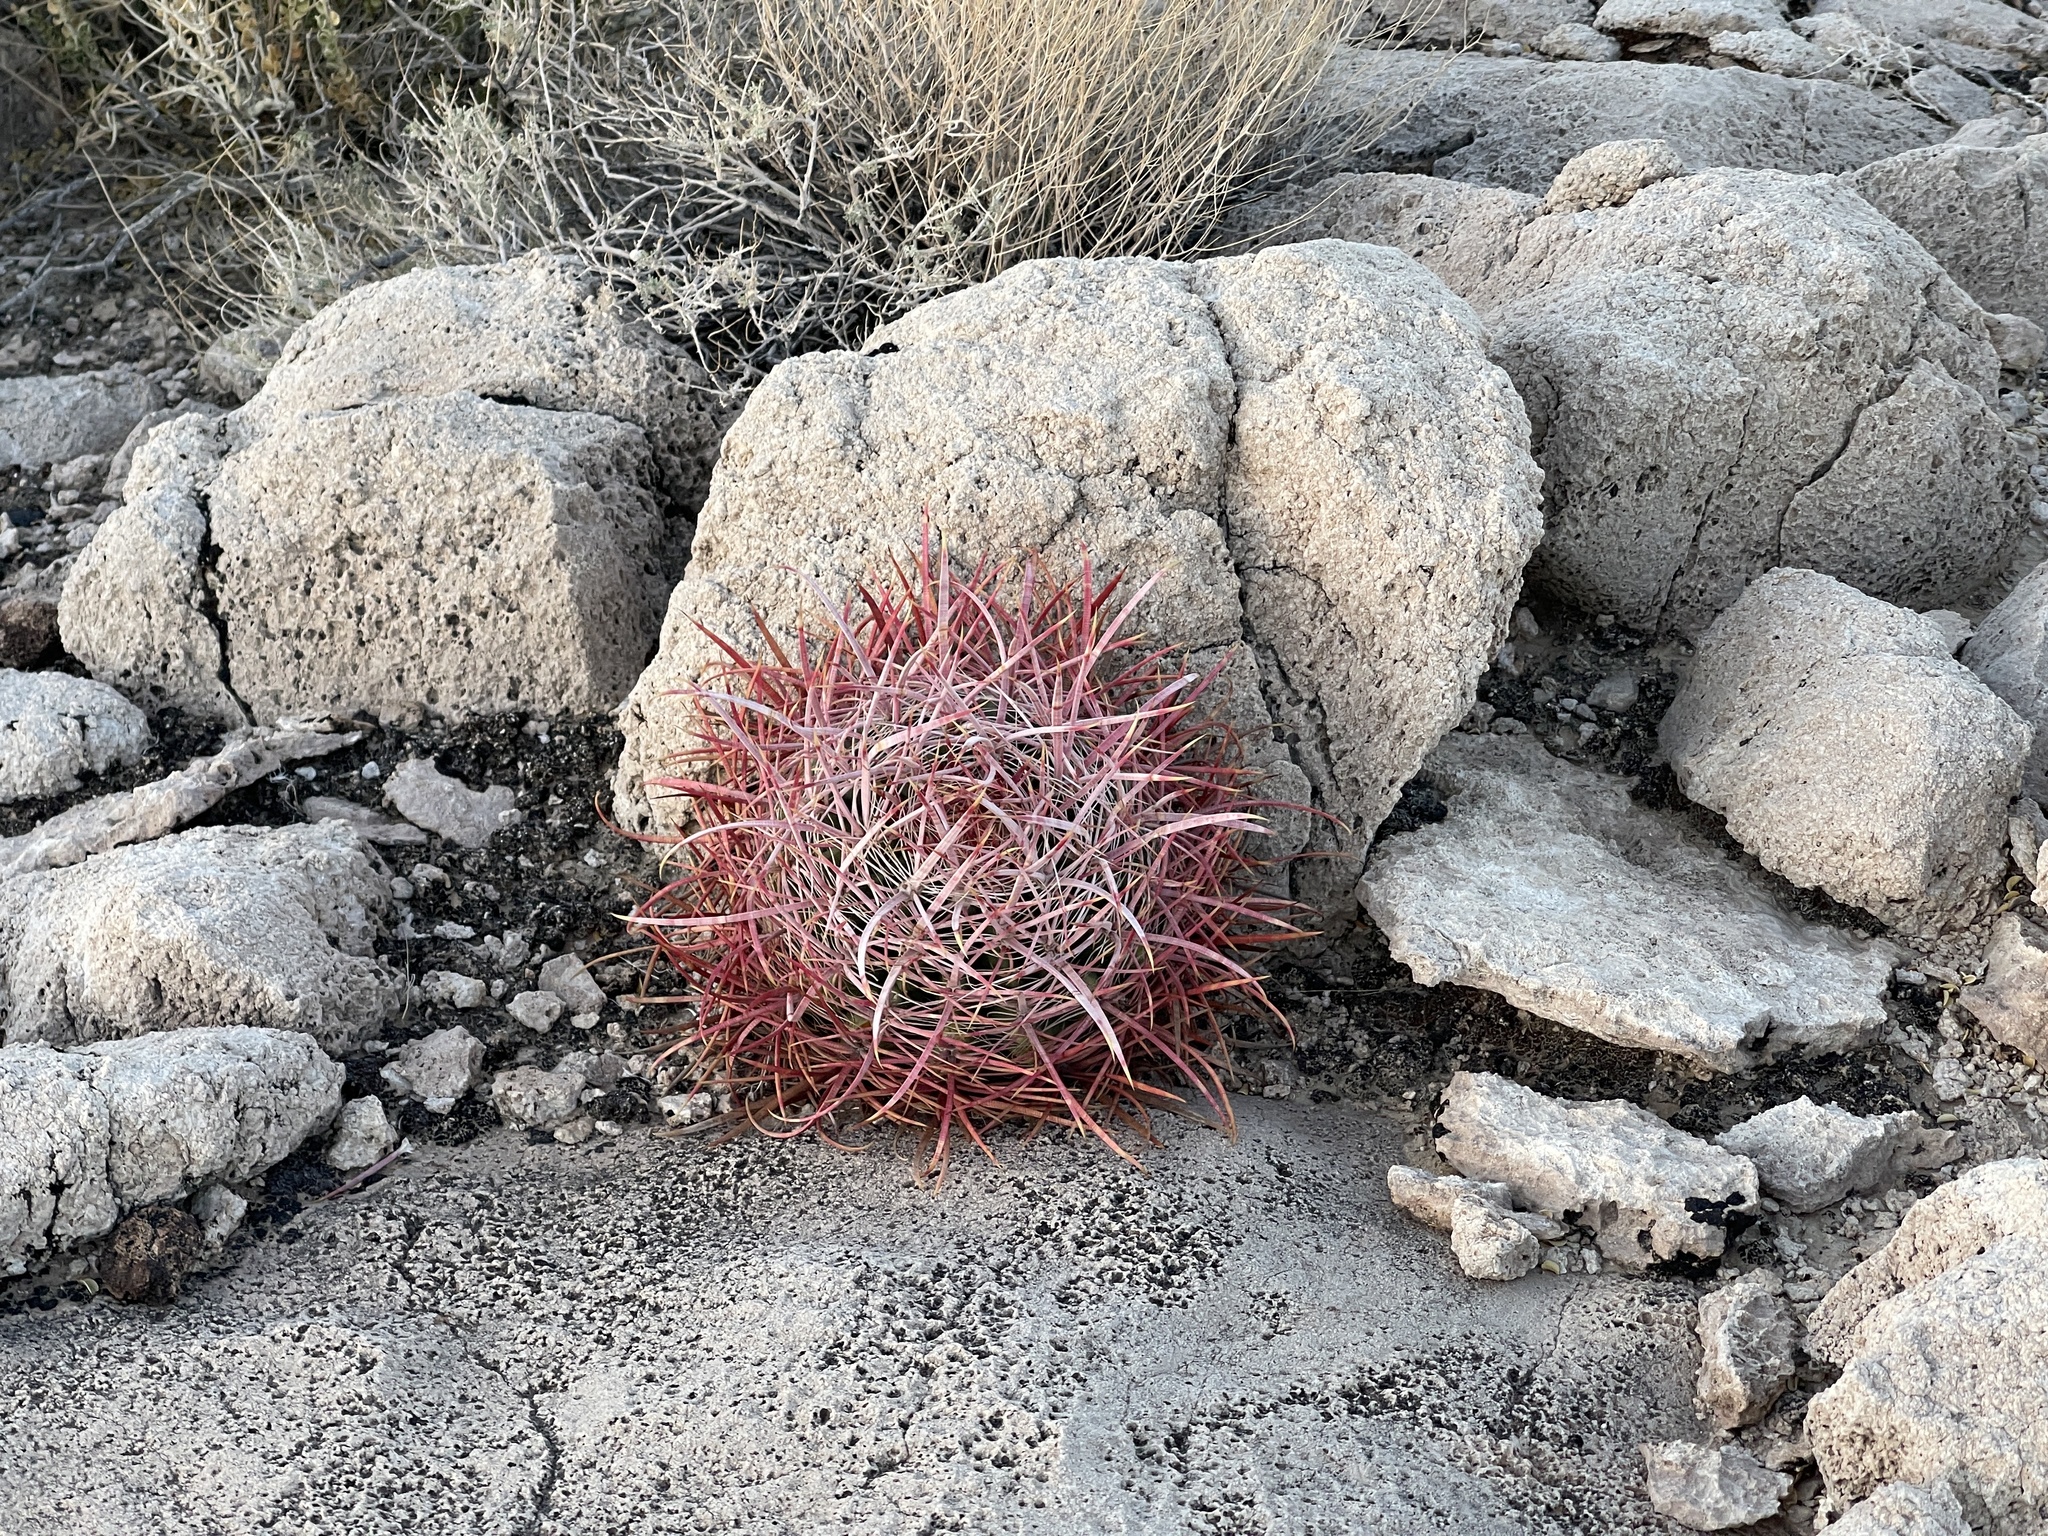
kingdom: Plantae
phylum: Tracheophyta
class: Magnoliopsida
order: Caryophyllales
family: Cactaceae
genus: Ferocactus
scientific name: Ferocactus cylindraceus
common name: California barrel cactus
